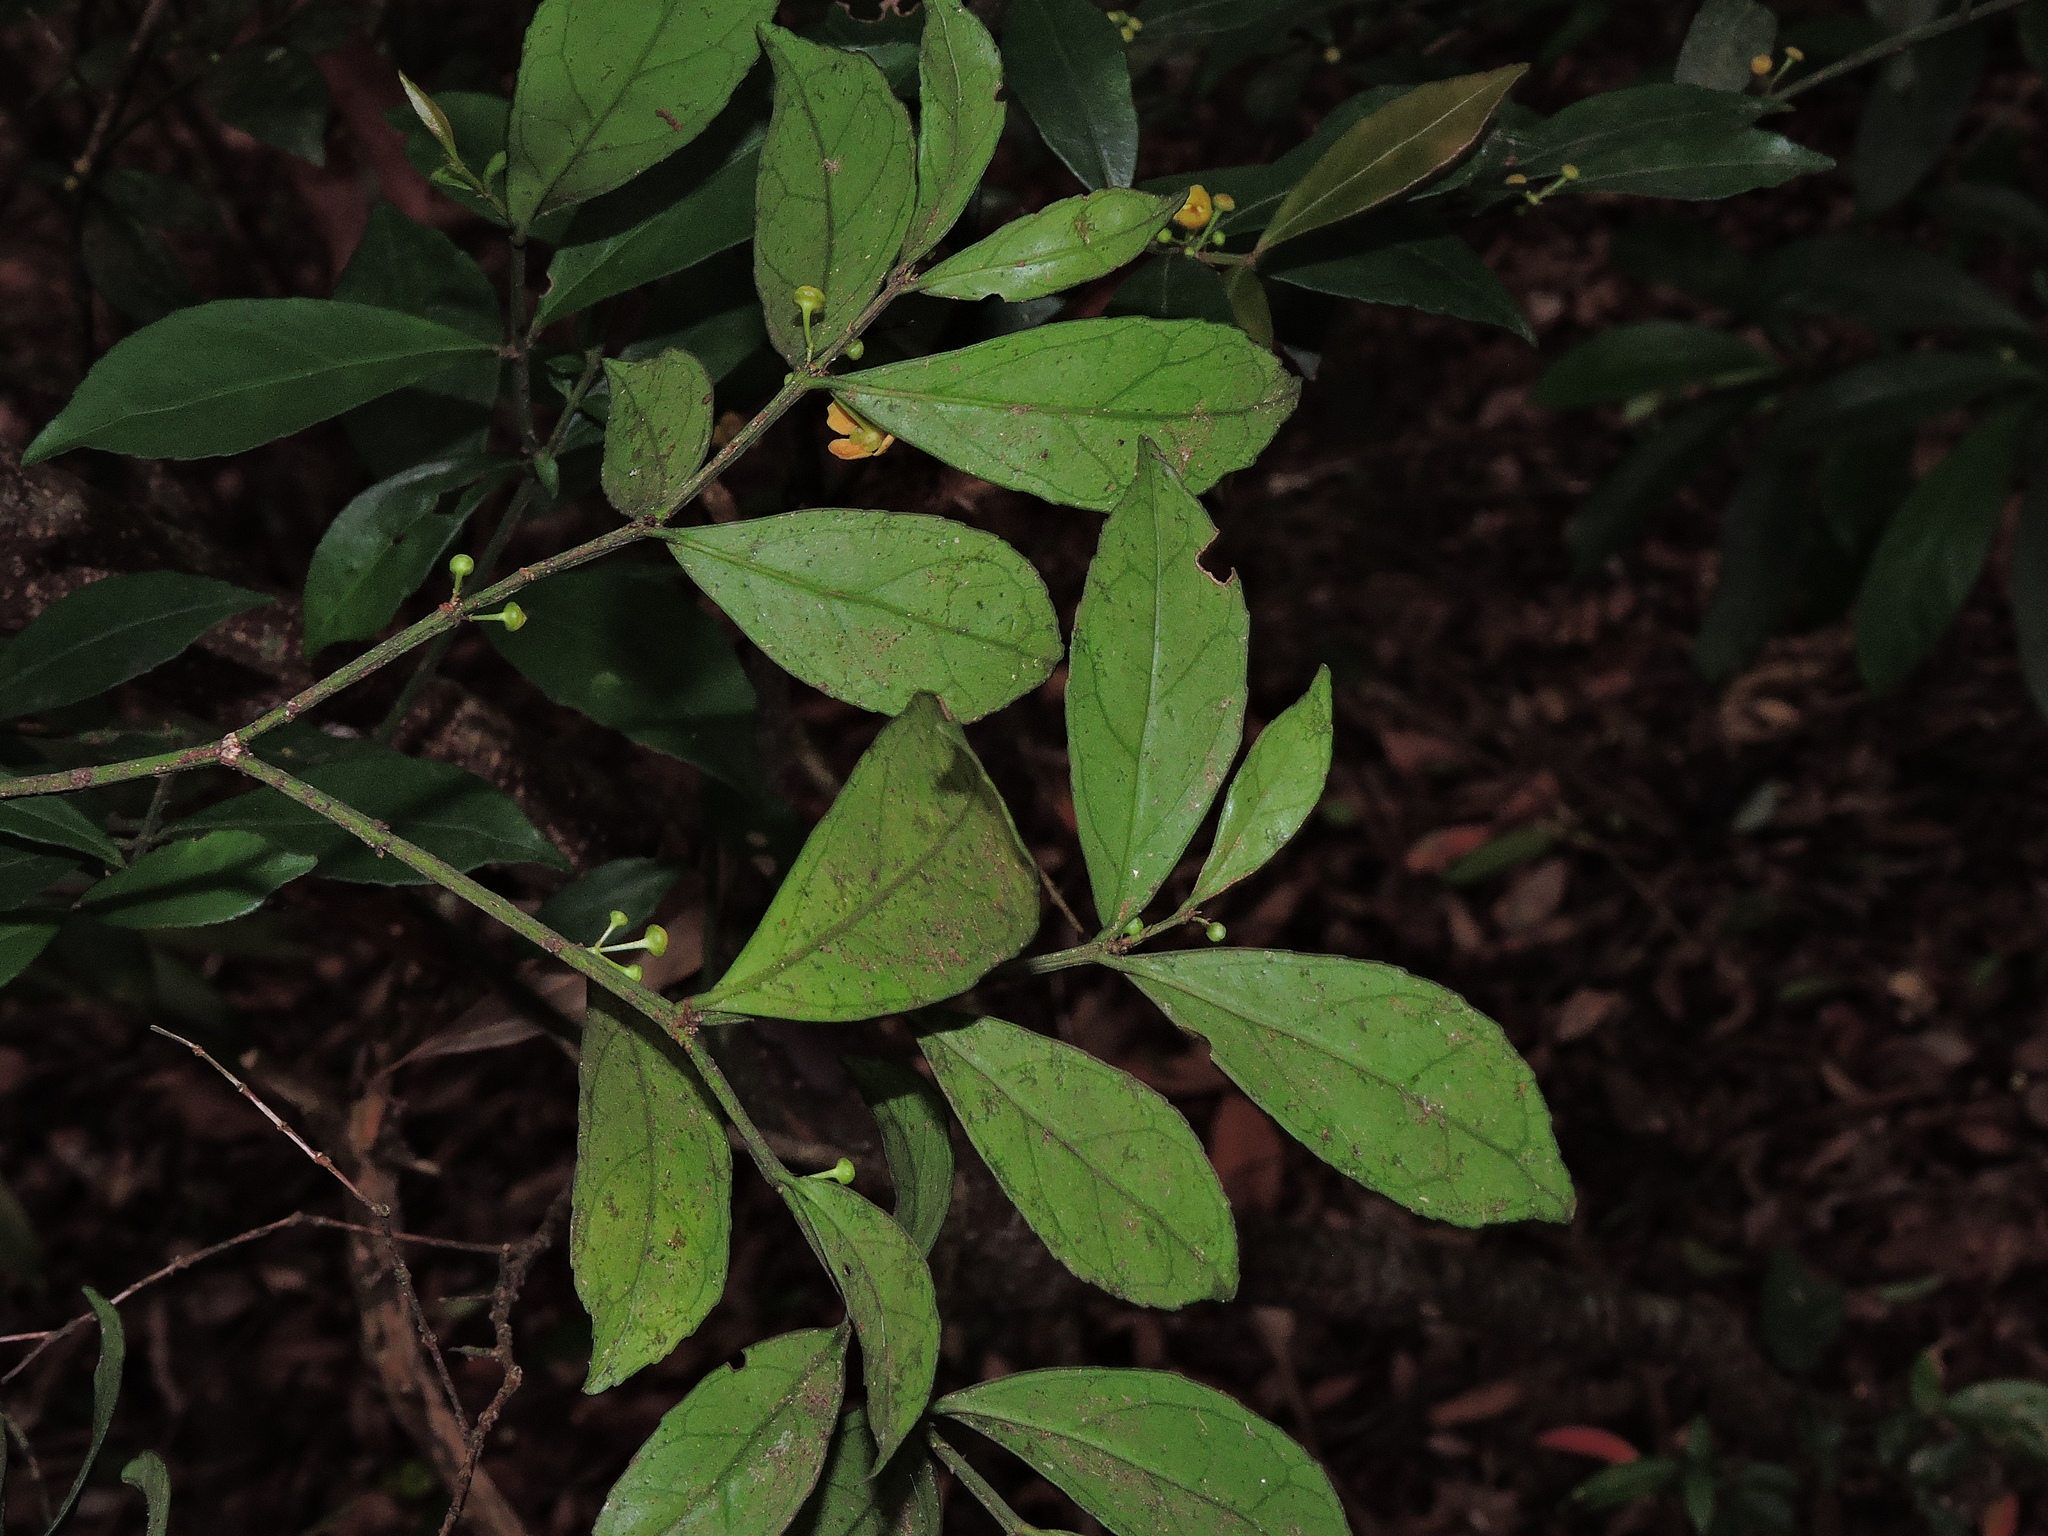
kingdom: Plantae
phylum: Tracheophyta
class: Magnoliopsida
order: Celastrales
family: Celastraceae
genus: Euonymus
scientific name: Euonymus tashiroi
